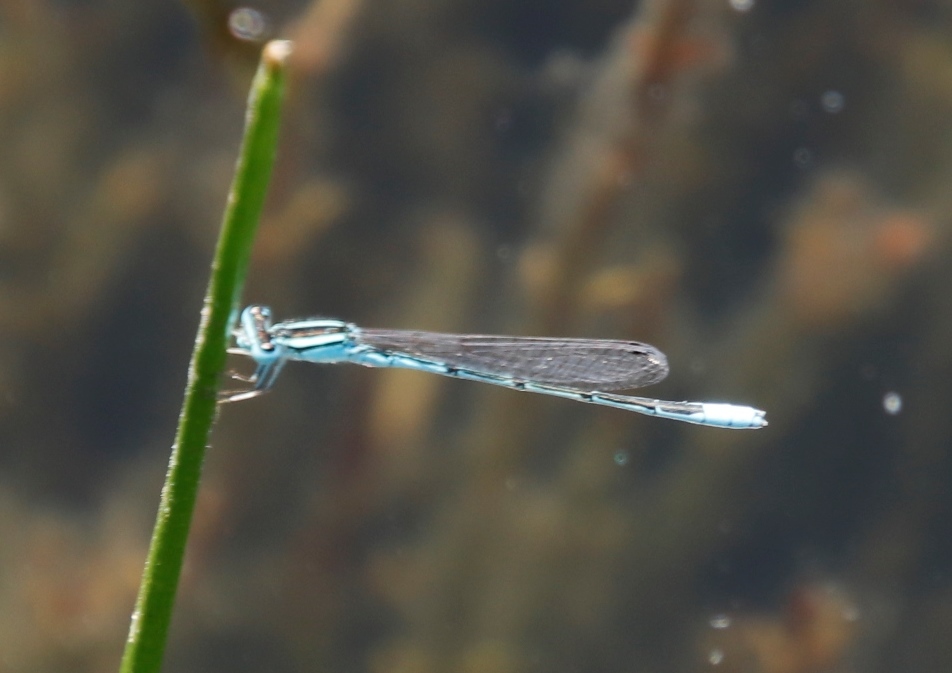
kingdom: Animalia
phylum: Arthropoda
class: Insecta
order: Odonata
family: Coenagrionidae
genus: Africallagma
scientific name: Africallagma glaucum
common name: Swamp bluet
